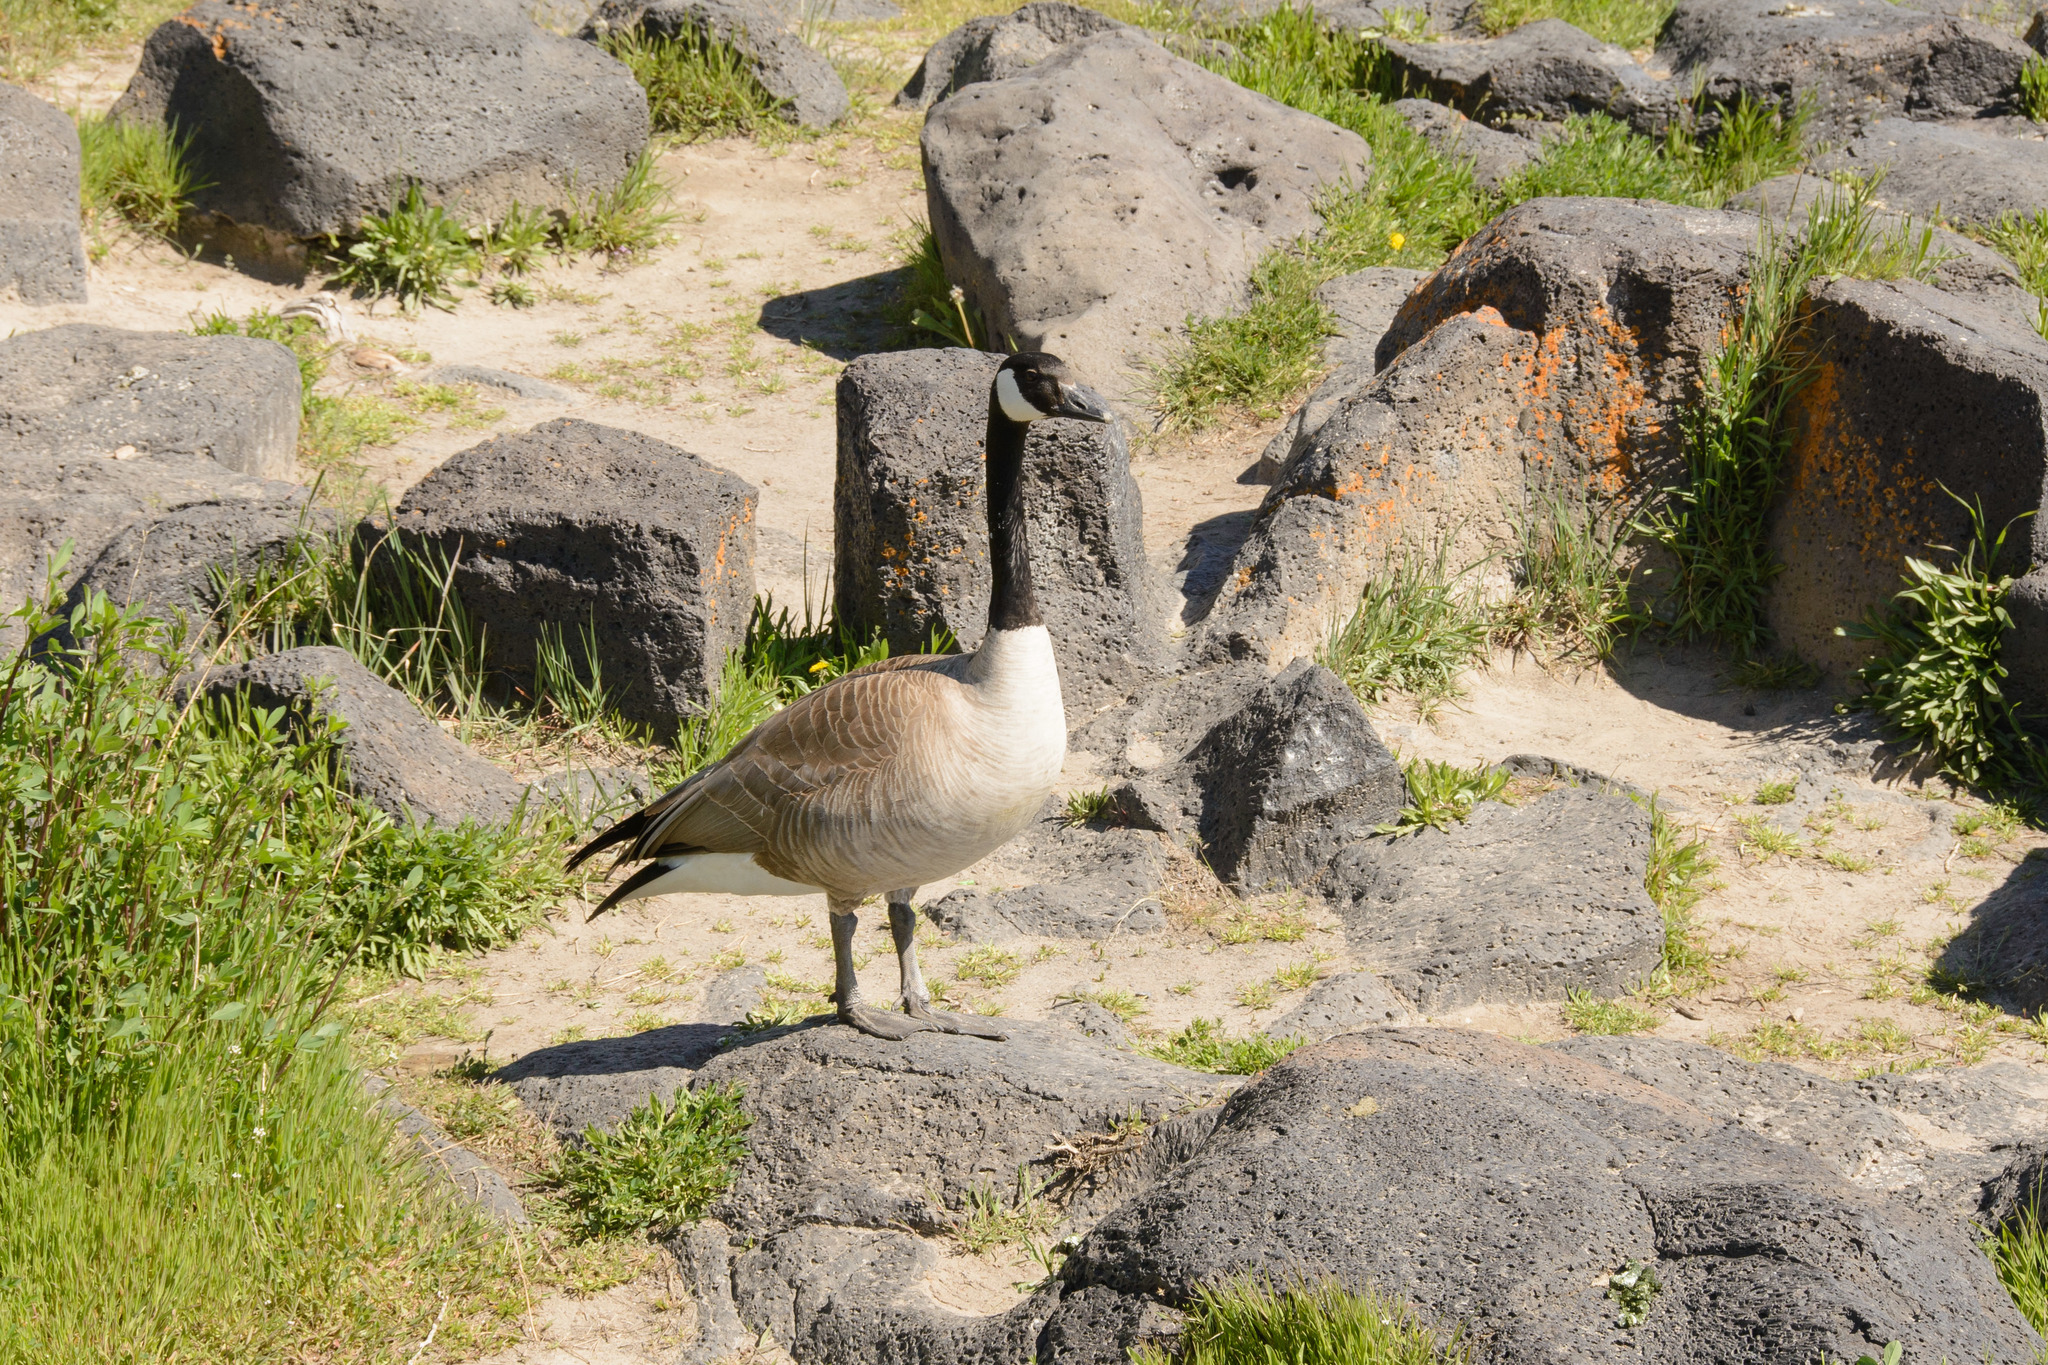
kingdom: Animalia
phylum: Chordata
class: Aves
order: Anseriformes
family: Anatidae
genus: Branta
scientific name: Branta canadensis
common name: Canada goose
